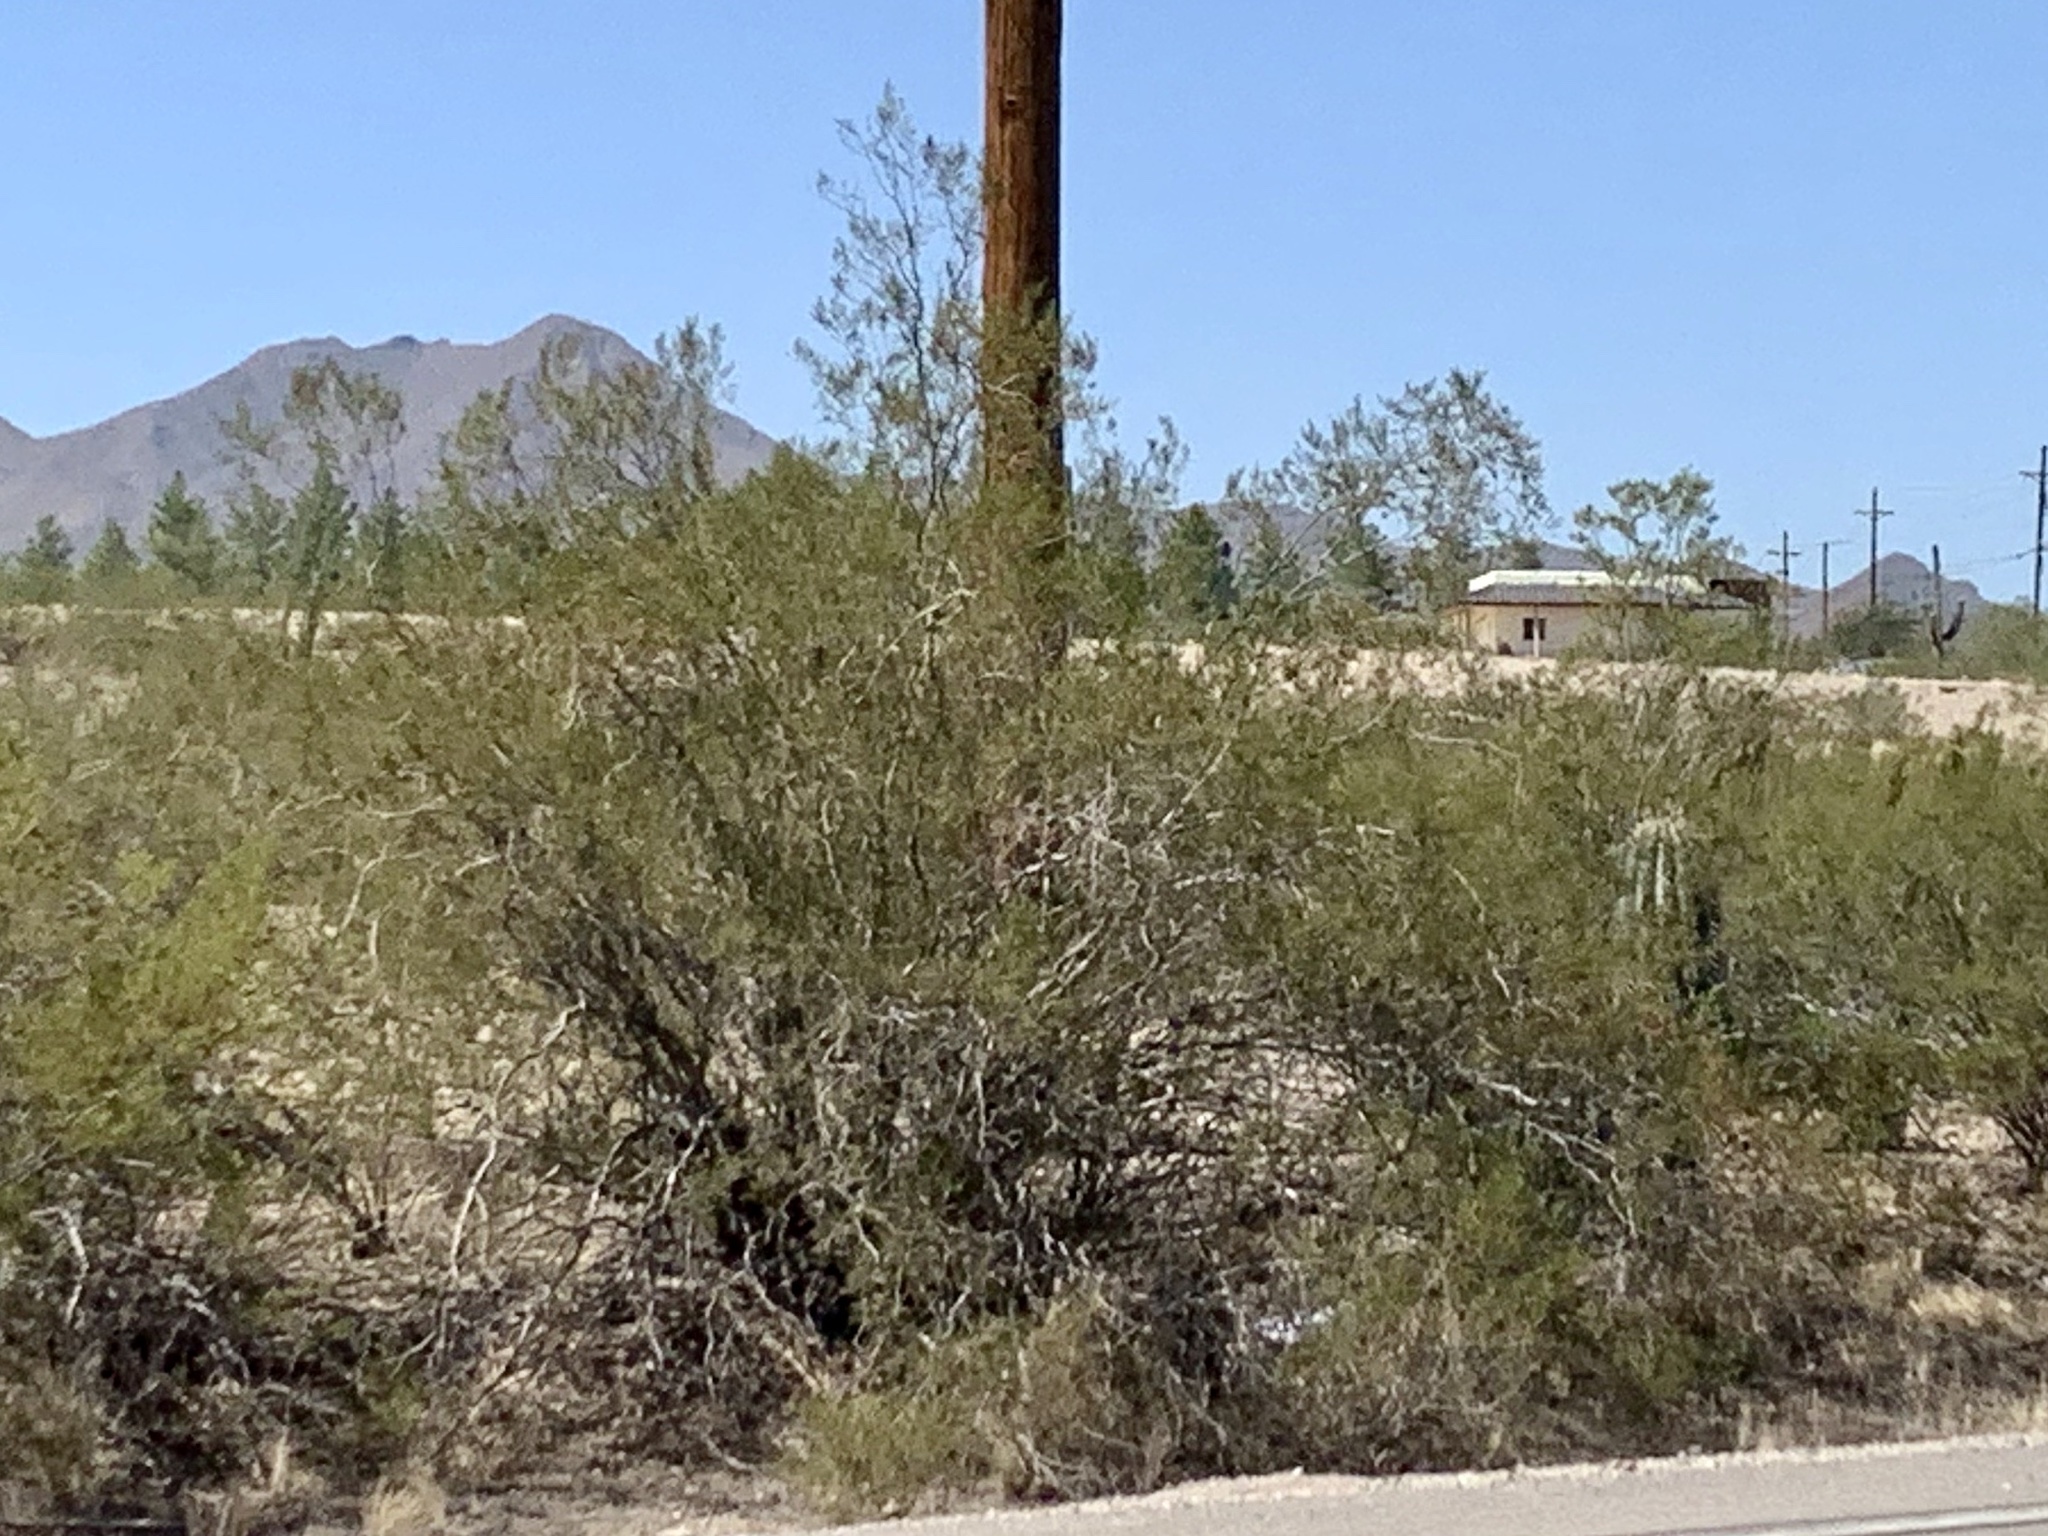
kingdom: Plantae
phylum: Tracheophyta
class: Magnoliopsida
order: Zygophyllales
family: Zygophyllaceae
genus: Larrea
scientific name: Larrea tridentata
